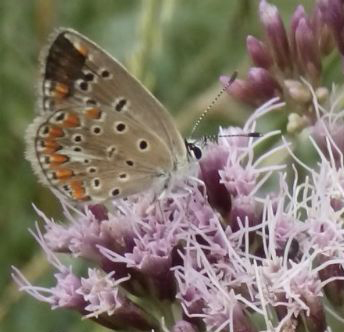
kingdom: Animalia
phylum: Arthropoda
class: Insecta
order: Lepidoptera
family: Lycaenidae
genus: Polyommatus
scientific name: Polyommatus thersites
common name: Chapman's blue
